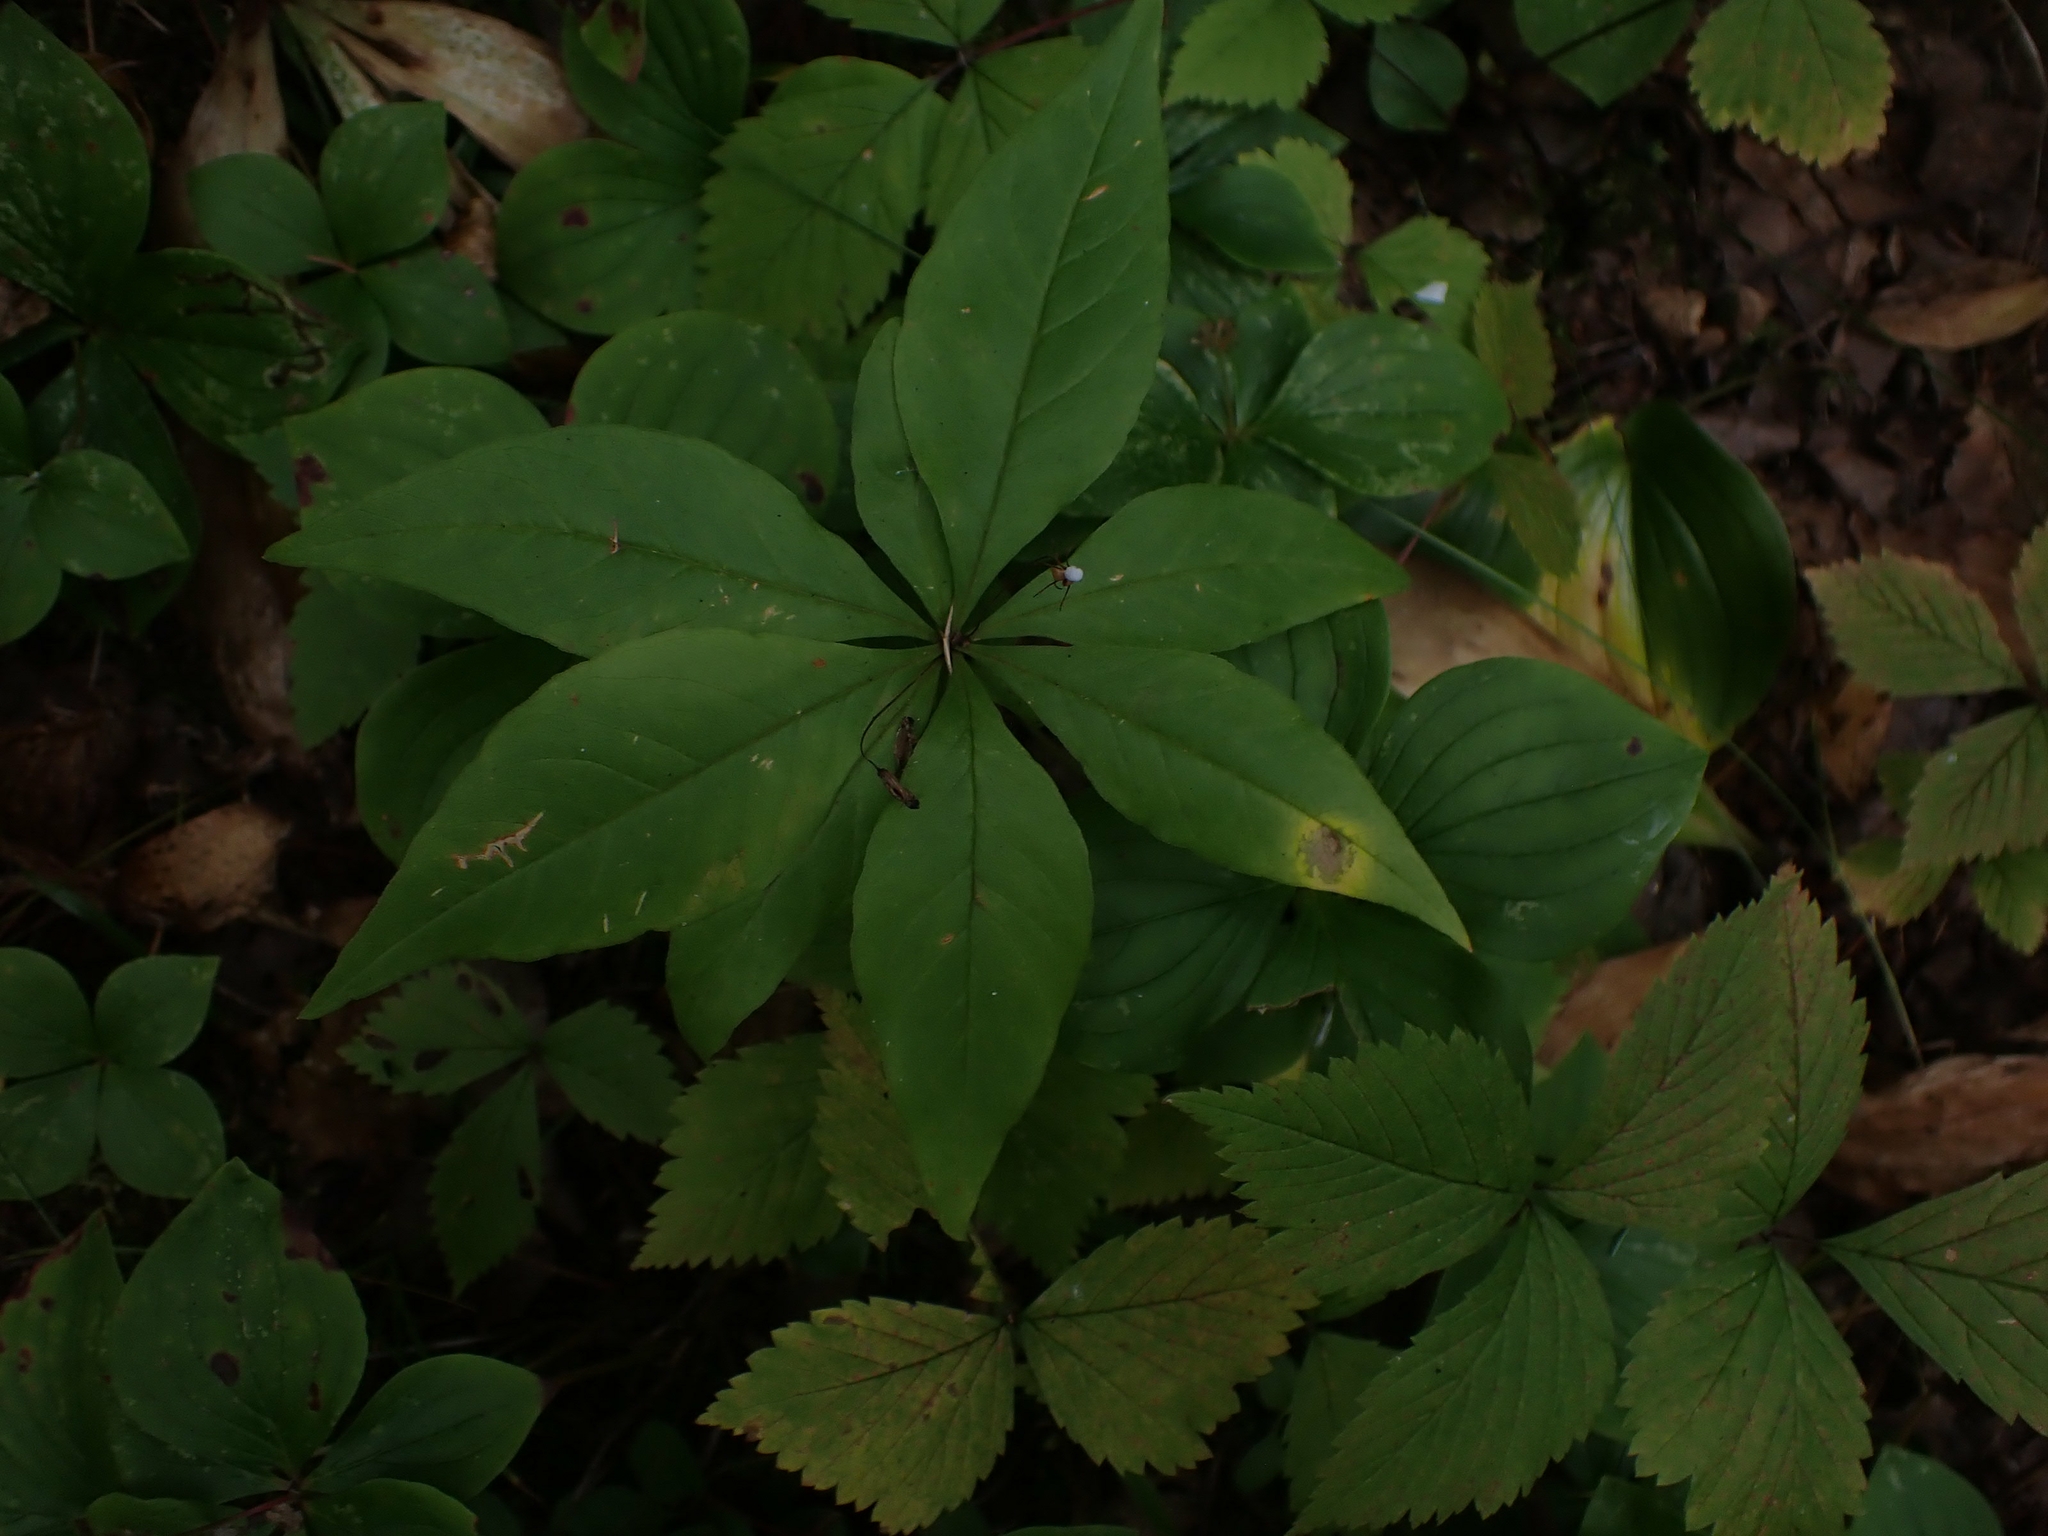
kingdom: Plantae
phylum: Tracheophyta
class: Magnoliopsida
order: Ericales
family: Primulaceae
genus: Lysimachia
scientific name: Lysimachia borealis
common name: American starflower
